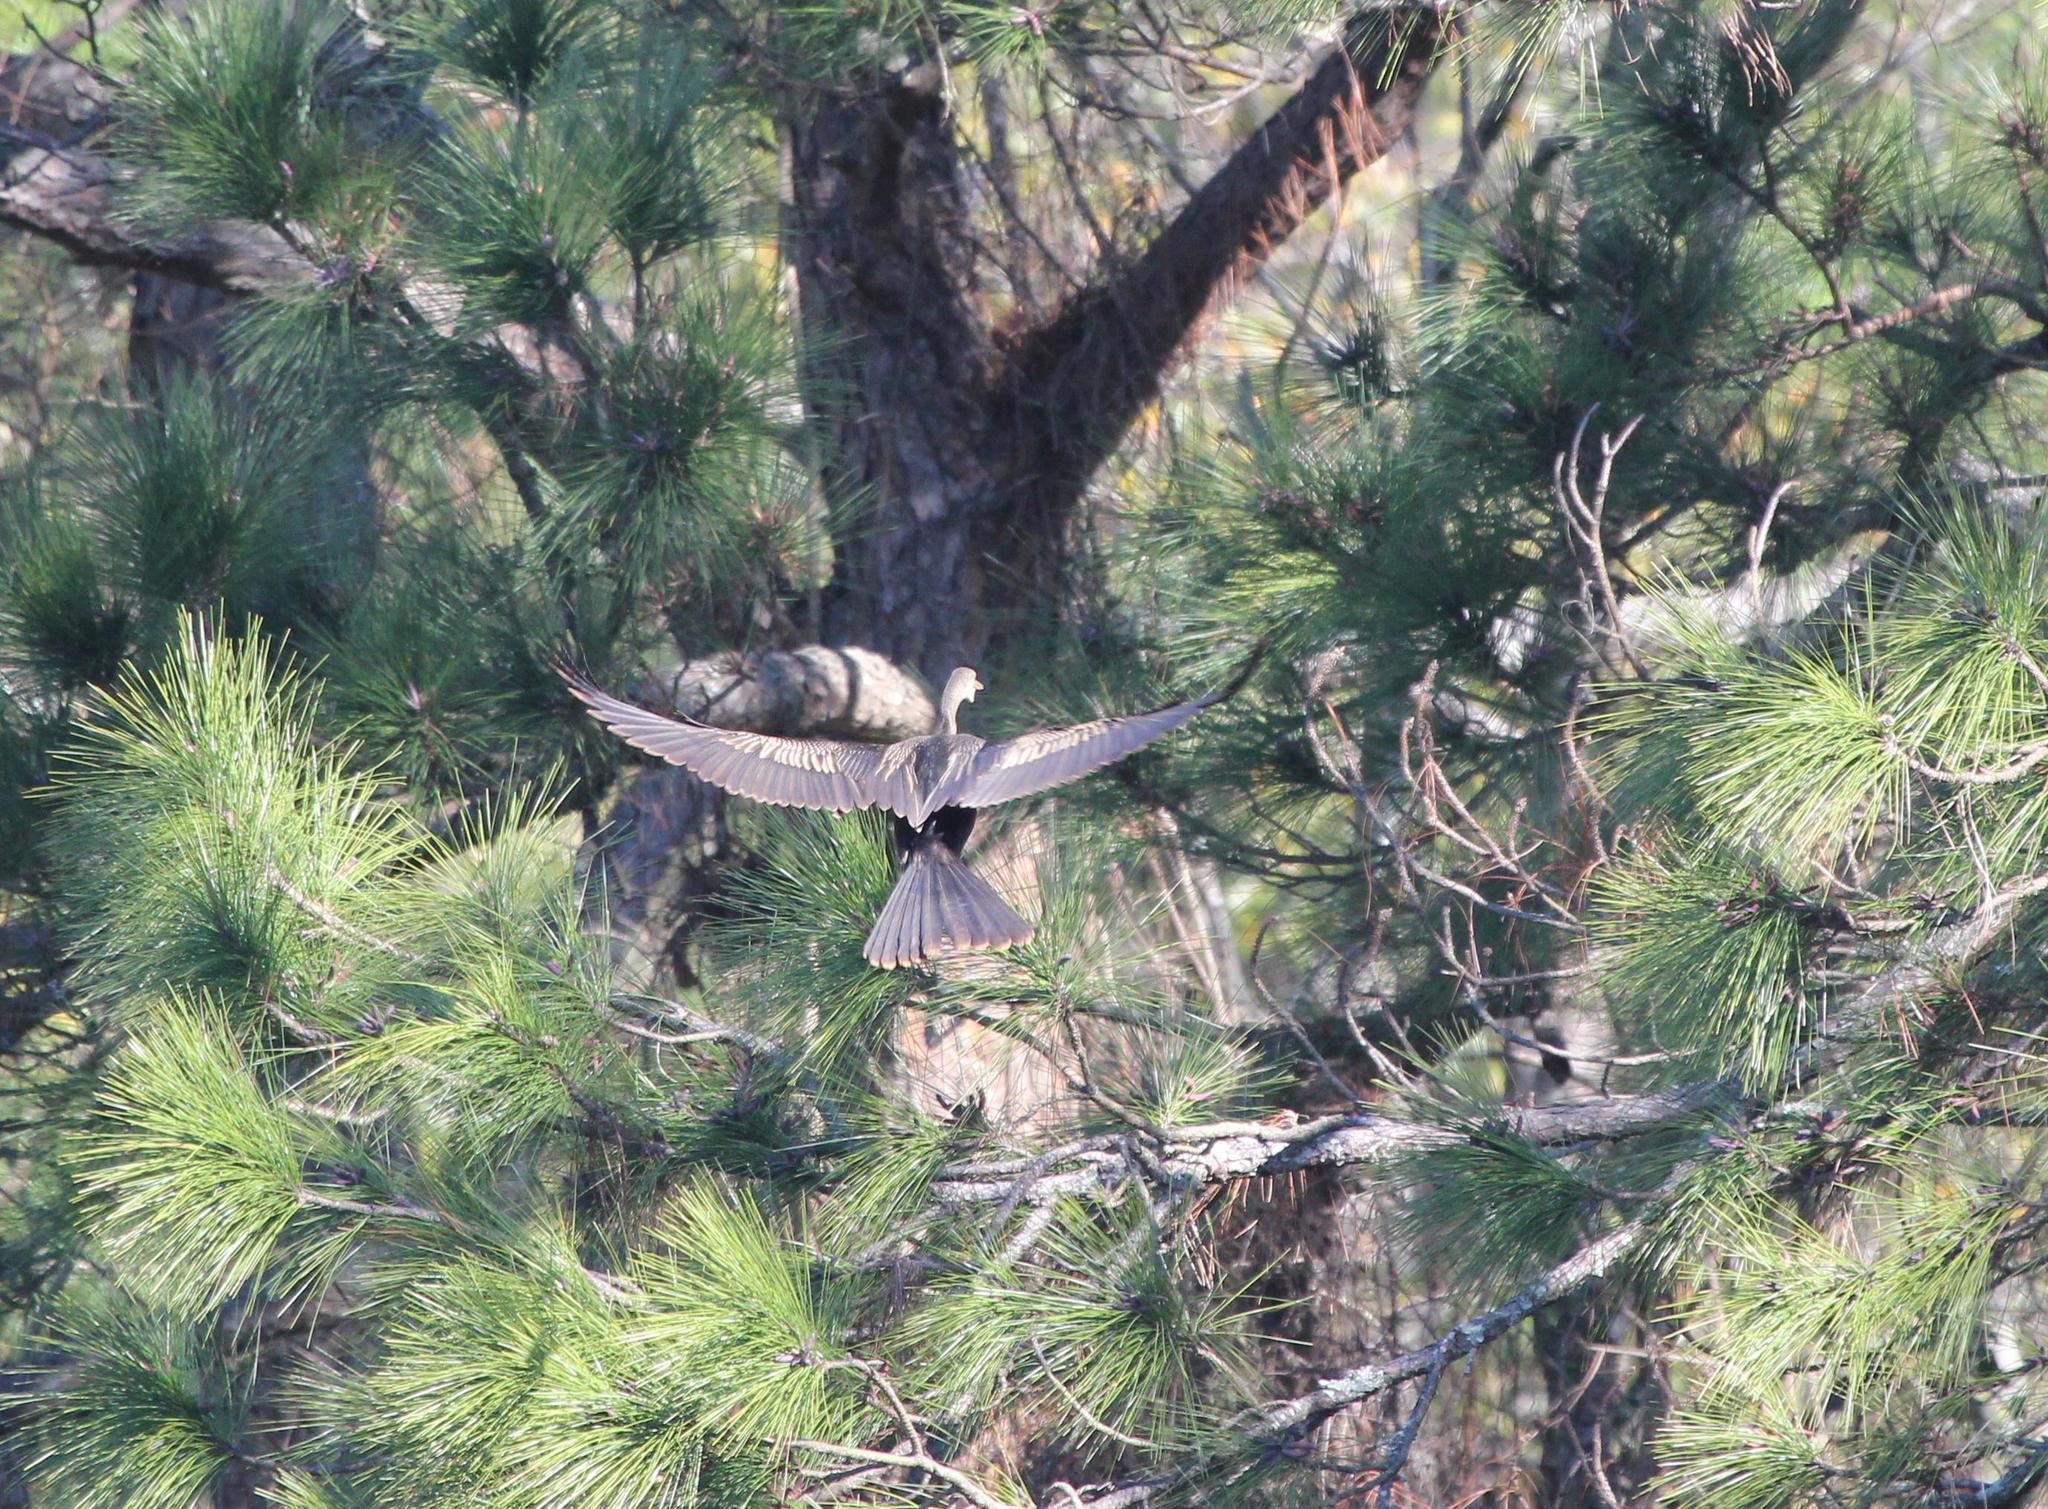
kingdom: Animalia
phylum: Chordata
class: Aves
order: Suliformes
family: Anhingidae
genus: Anhinga
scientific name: Anhinga anhinga
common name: Anhinga
